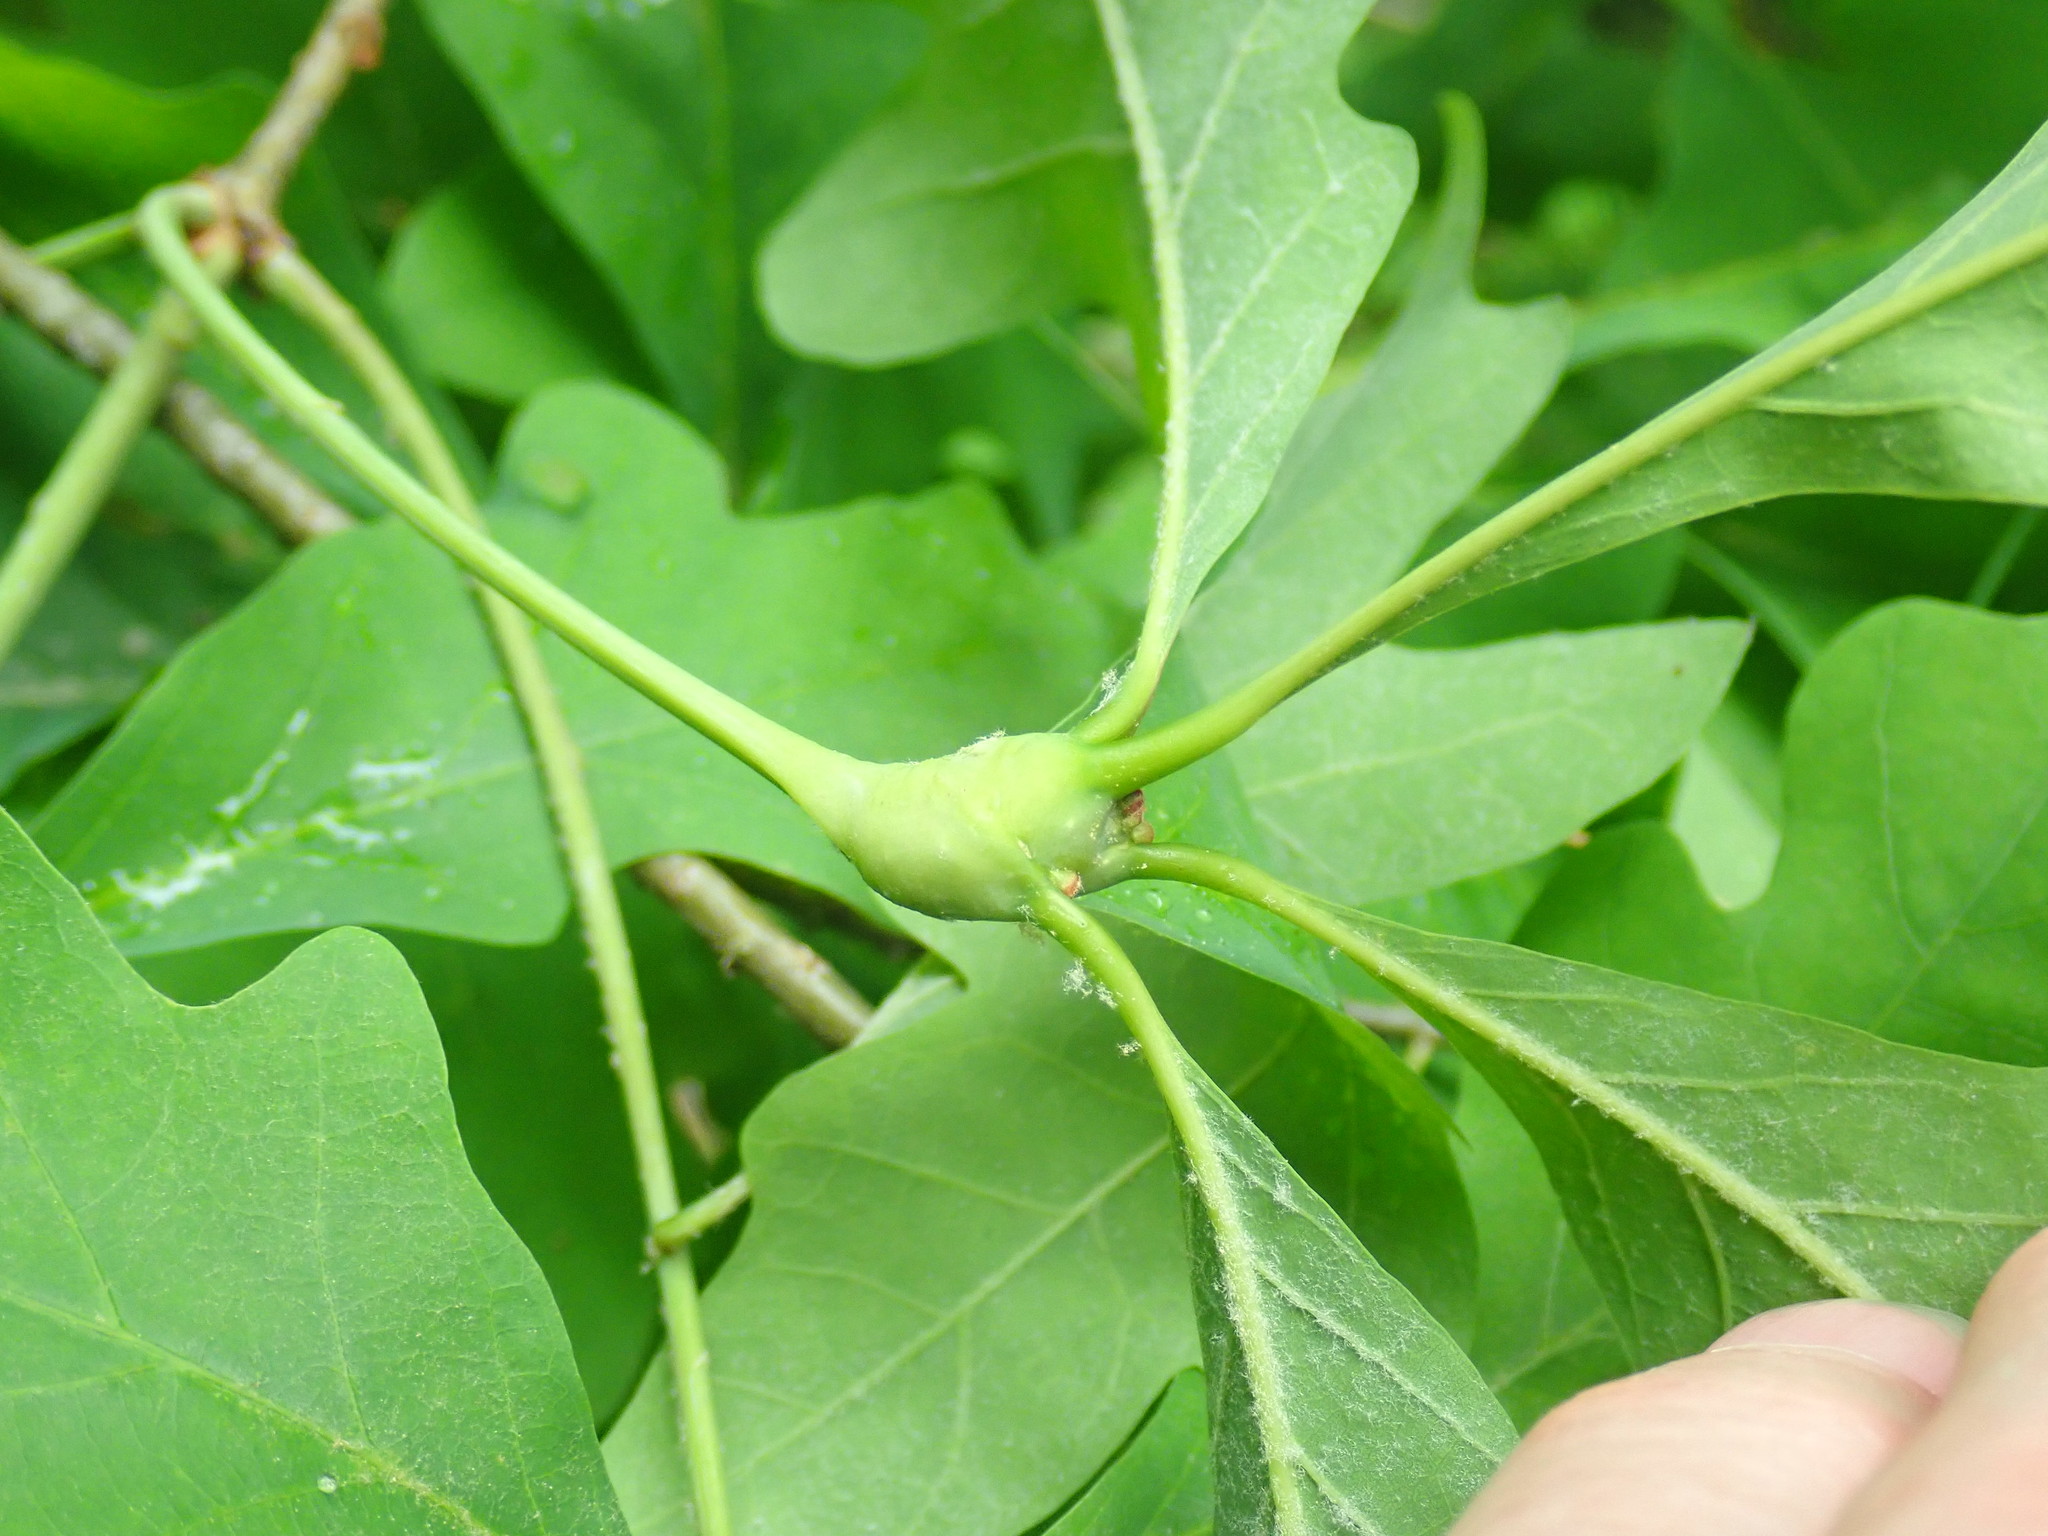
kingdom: Animalia
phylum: Arthropoda
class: Insecta
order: Hymenoptera
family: Cynipidae
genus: Callirhytis
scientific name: Callirhytis clavula
